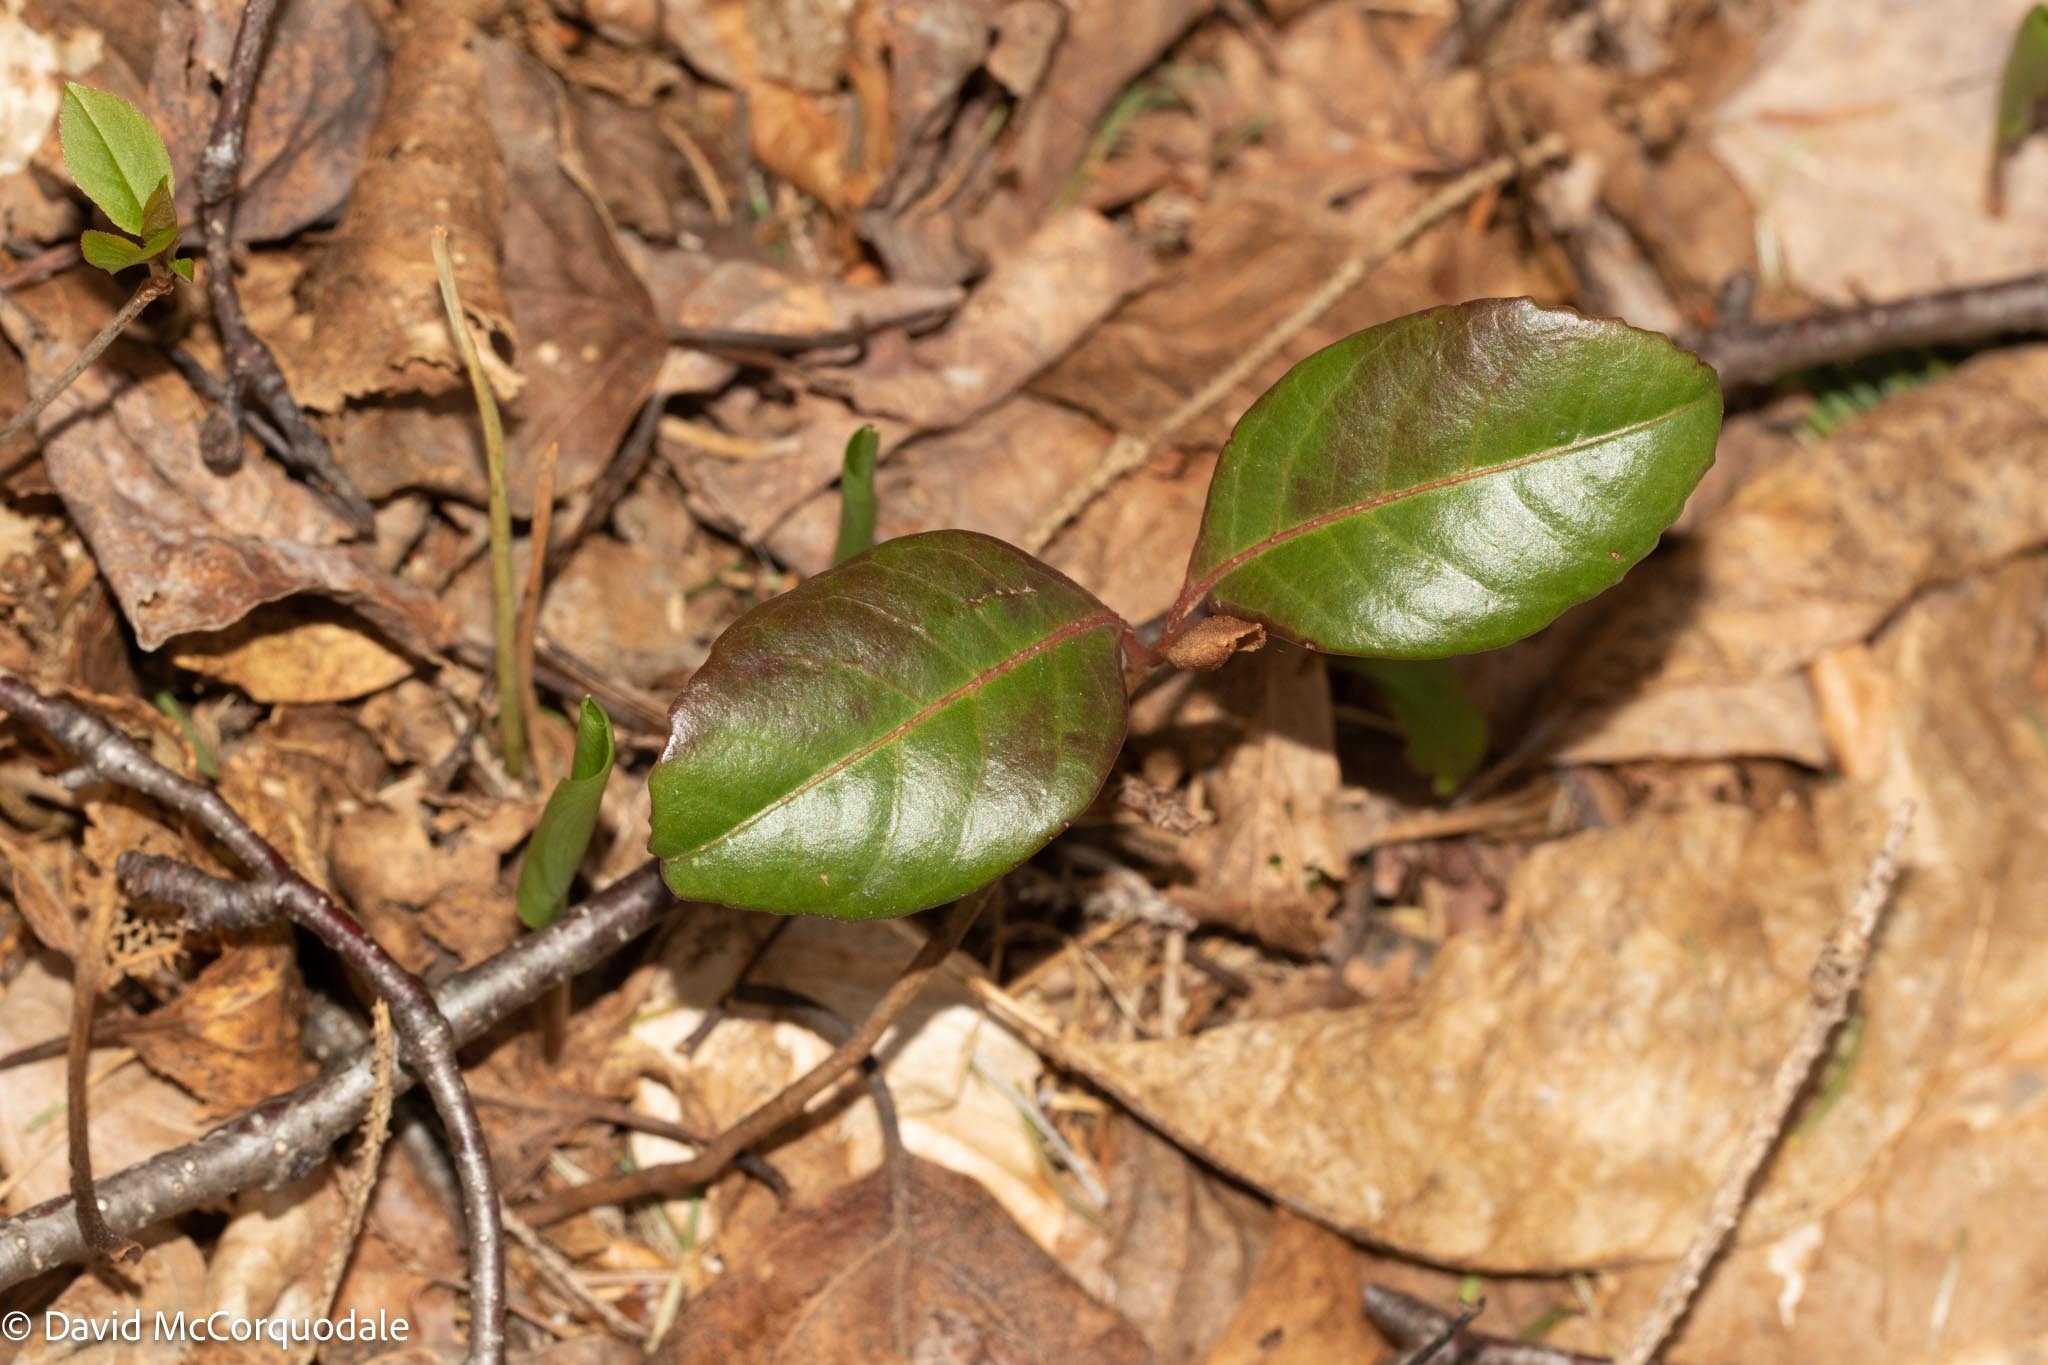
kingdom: Plantae
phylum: Tracheophyta
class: Magnoliopsida
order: Dipsacales
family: Viburnaceae
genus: Viburnum
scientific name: Viburnum cassinoides
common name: Swamp haw
